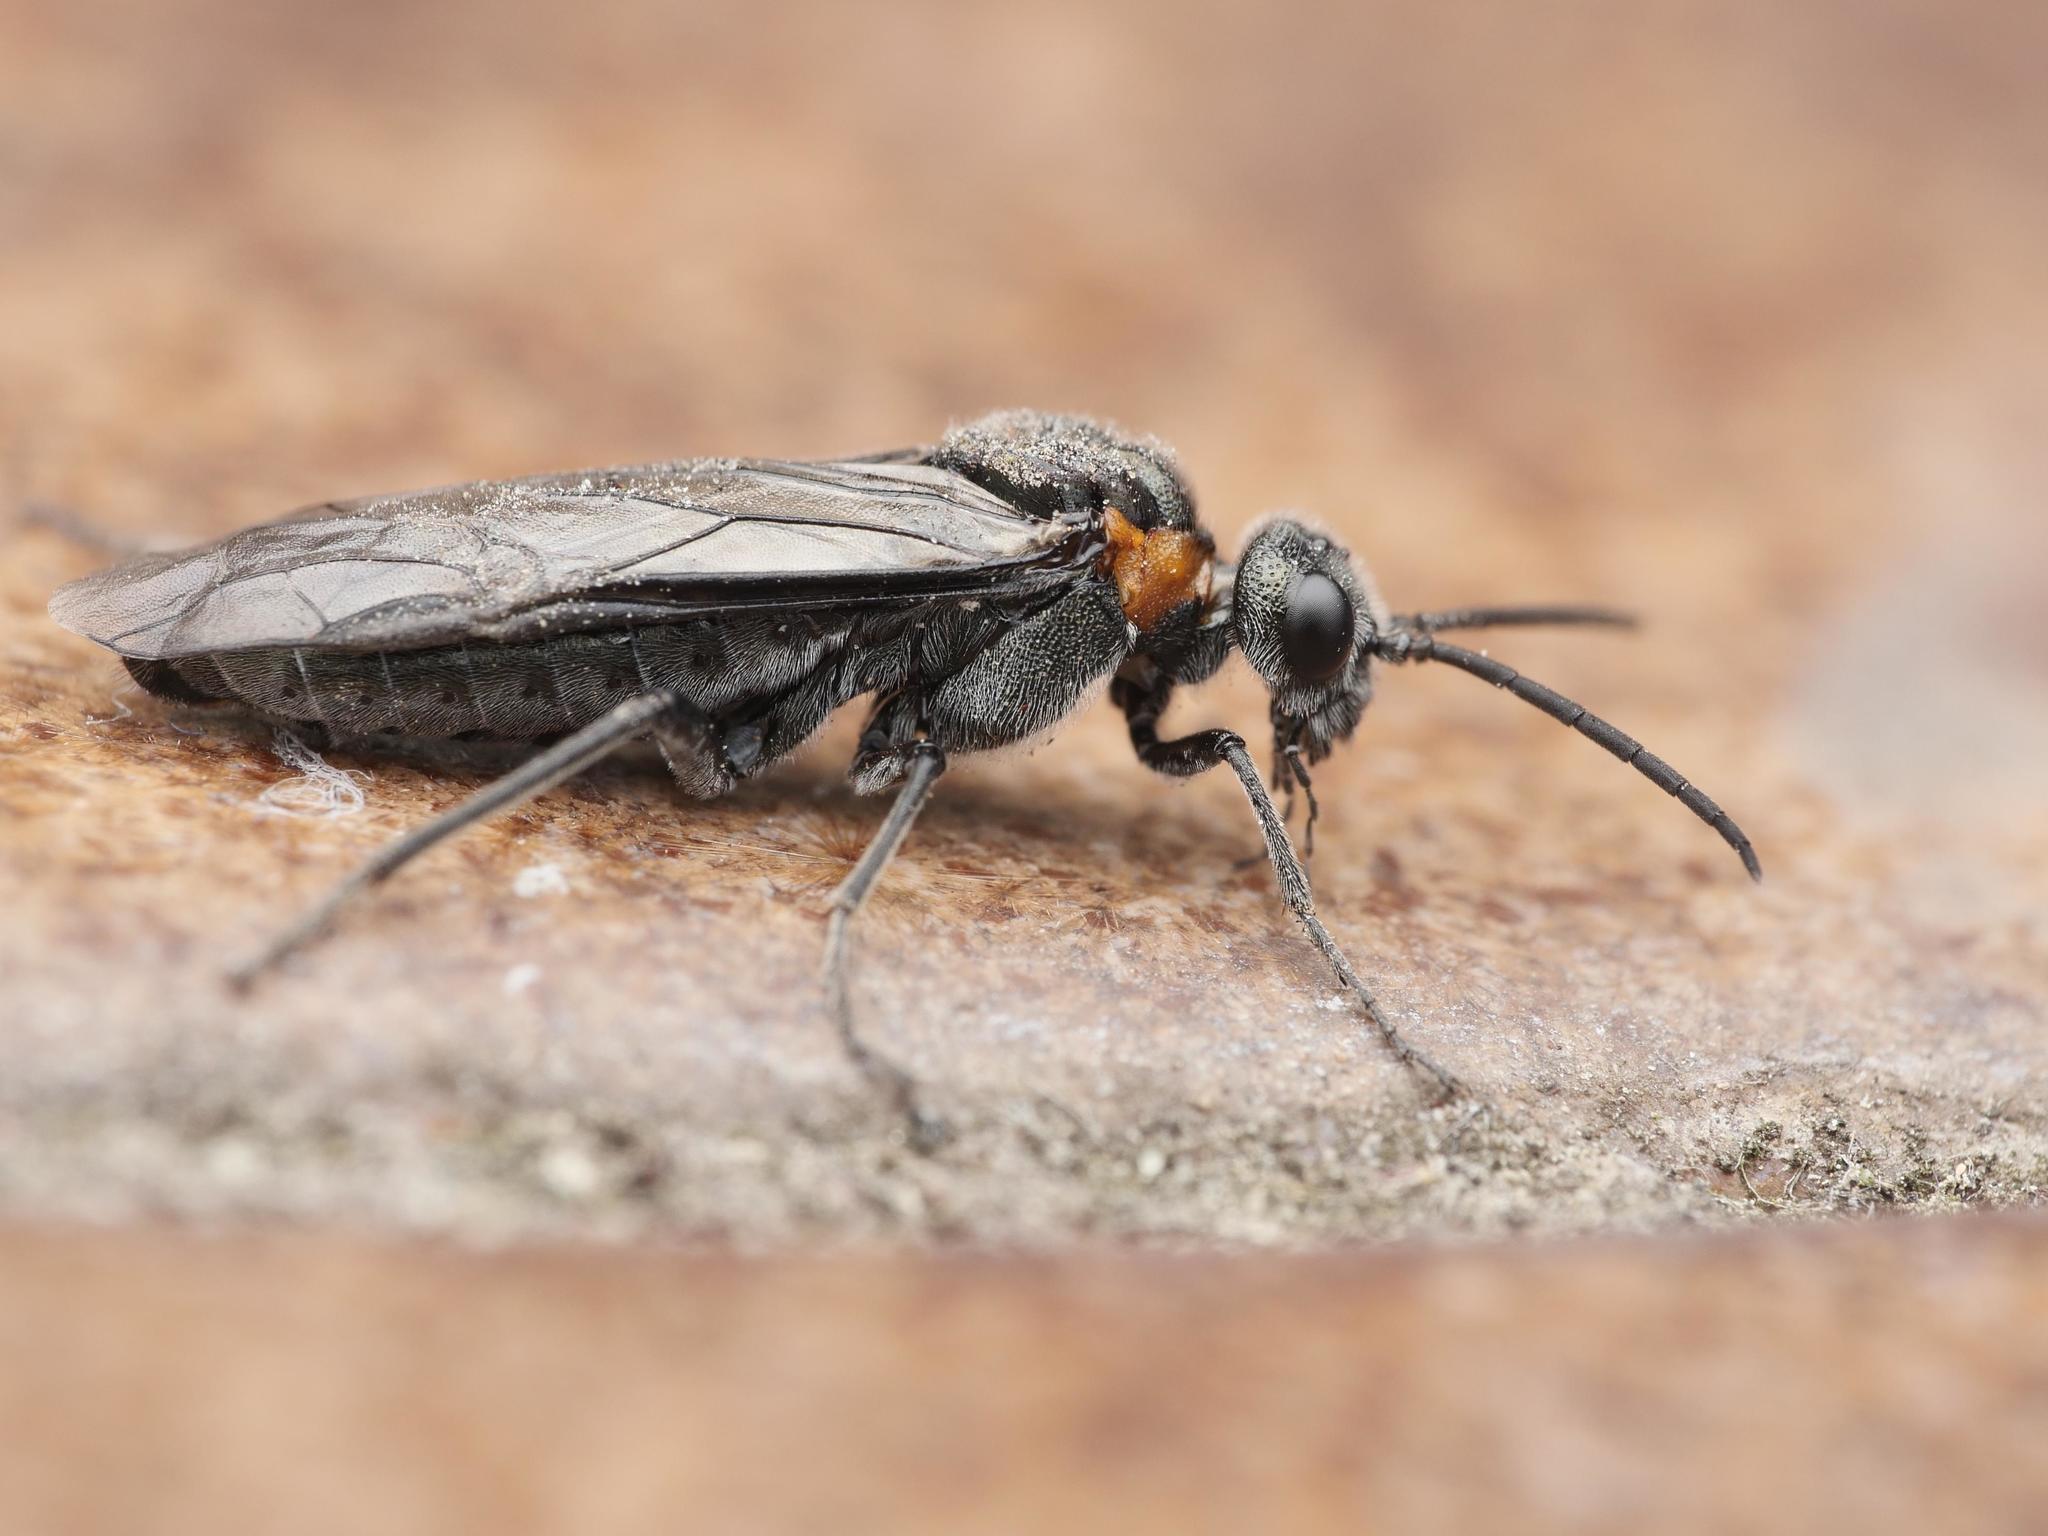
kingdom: Animalia
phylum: Arthropoda
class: Insecta
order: Hymenoptera
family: Tenthredinidae
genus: Dolerus
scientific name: Dolerus haematodes
